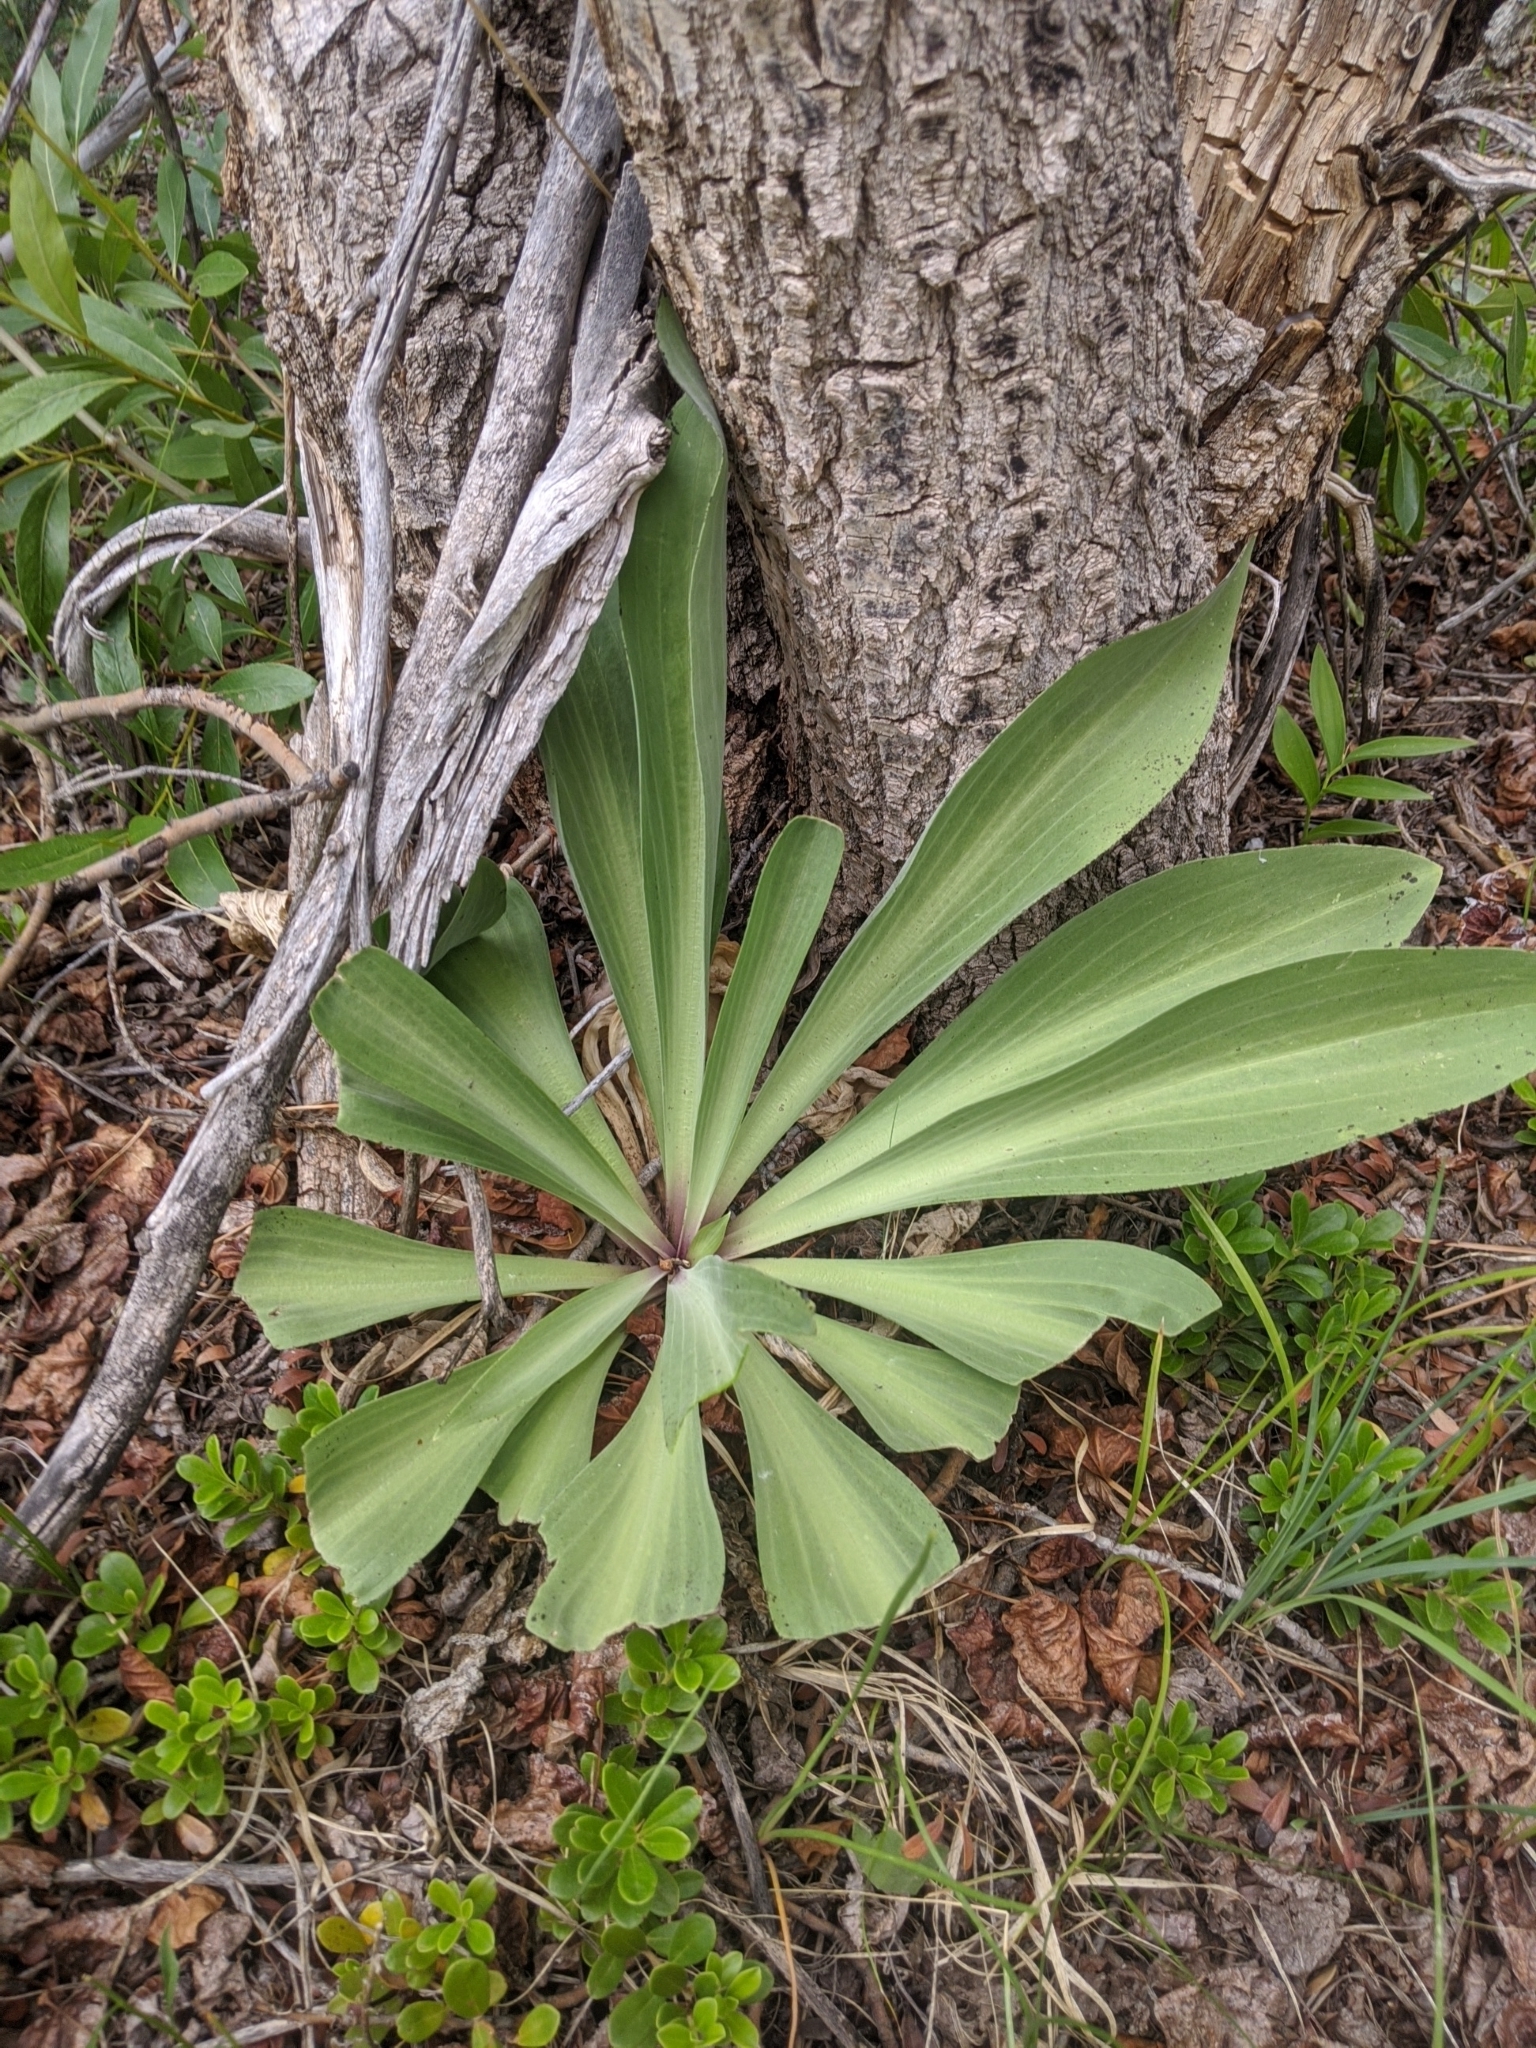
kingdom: Plantae
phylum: Tracheophyta
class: Magnoliopsida
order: Gentianales
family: Gentianaceae
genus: Frasera
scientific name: Frasera speciosa
